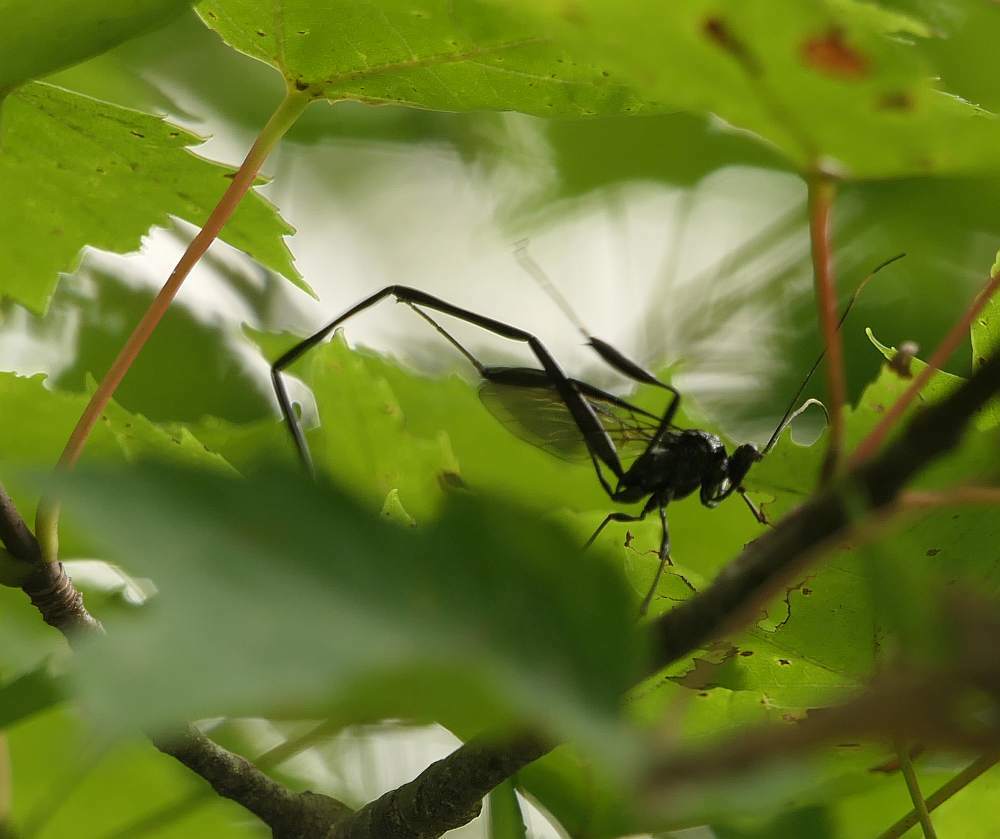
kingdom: Animalia
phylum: Arthropoda
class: Insecta
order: Hymenoptera
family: Pelecinidae
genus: Pelecinus
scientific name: Pelecinus polyturator
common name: American pelecinid wasp
